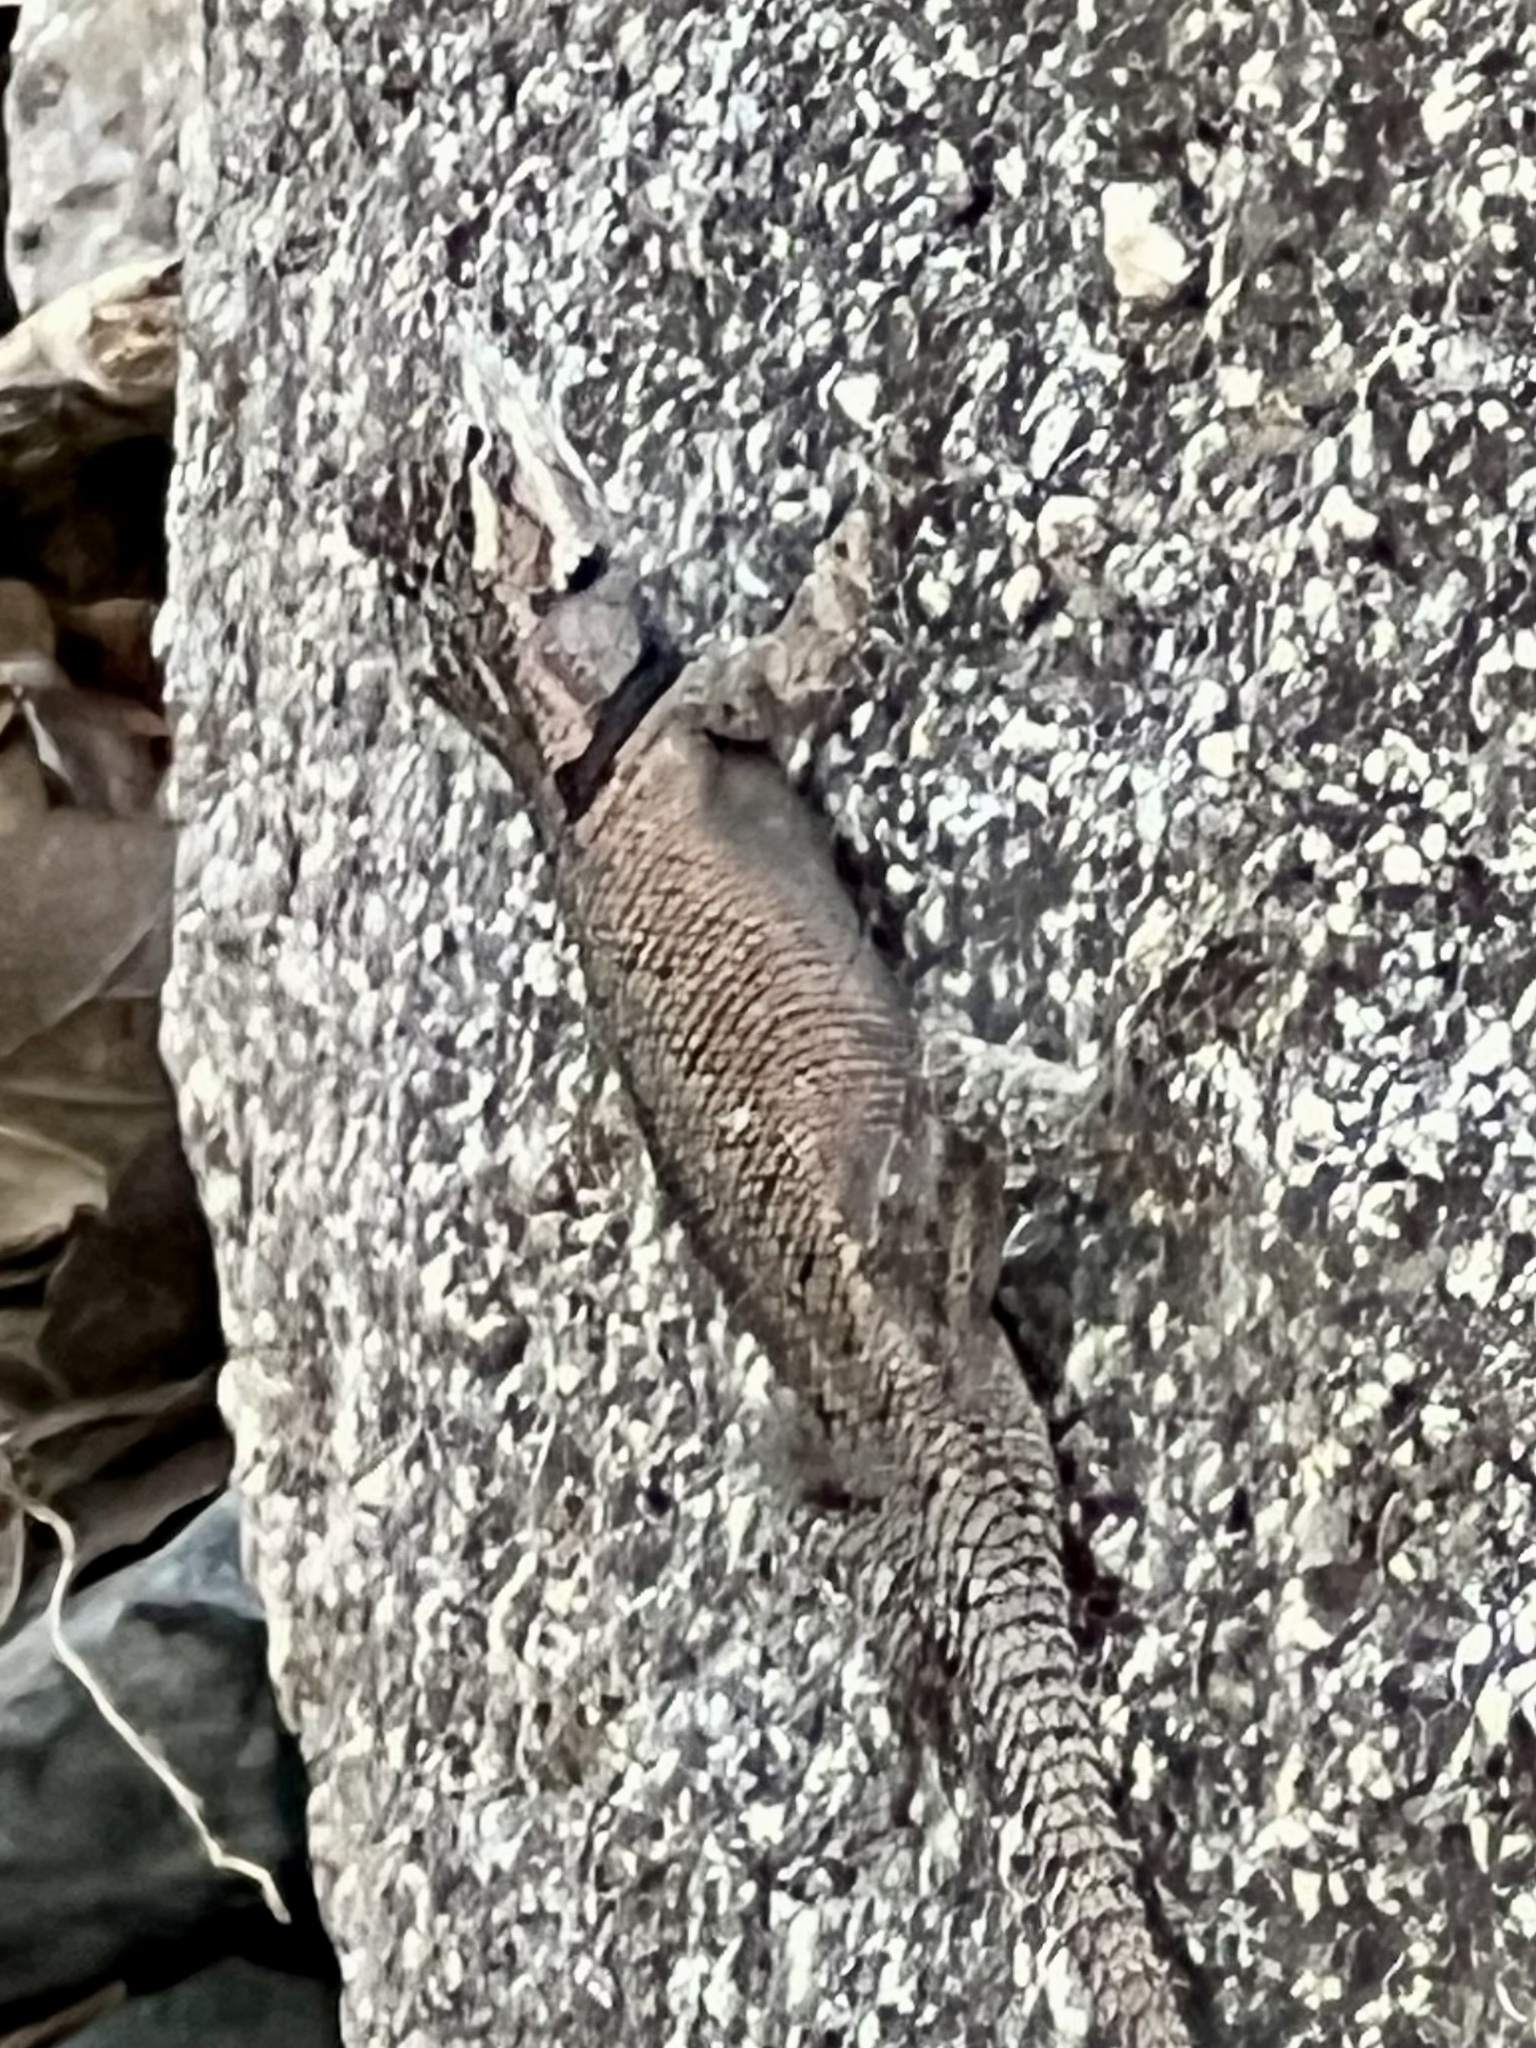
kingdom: Animalia
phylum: Chordata
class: Squamata
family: Phrynosomatidae
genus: Sceloporus
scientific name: Sceloporus jarrovii
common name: Yarrow's spiny lizard
